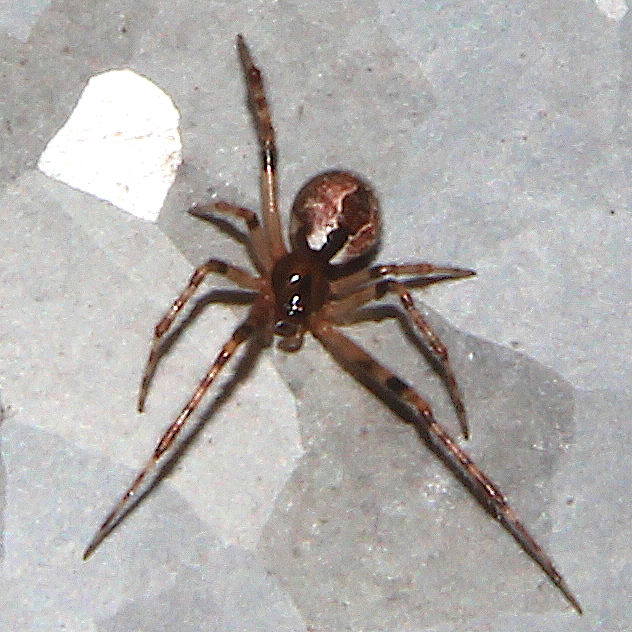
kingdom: Animalia
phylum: Arthropoda
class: Arachnida
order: Araneae
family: Theridiidae
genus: Cryptachaea
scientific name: Cryptachaea veruculata
